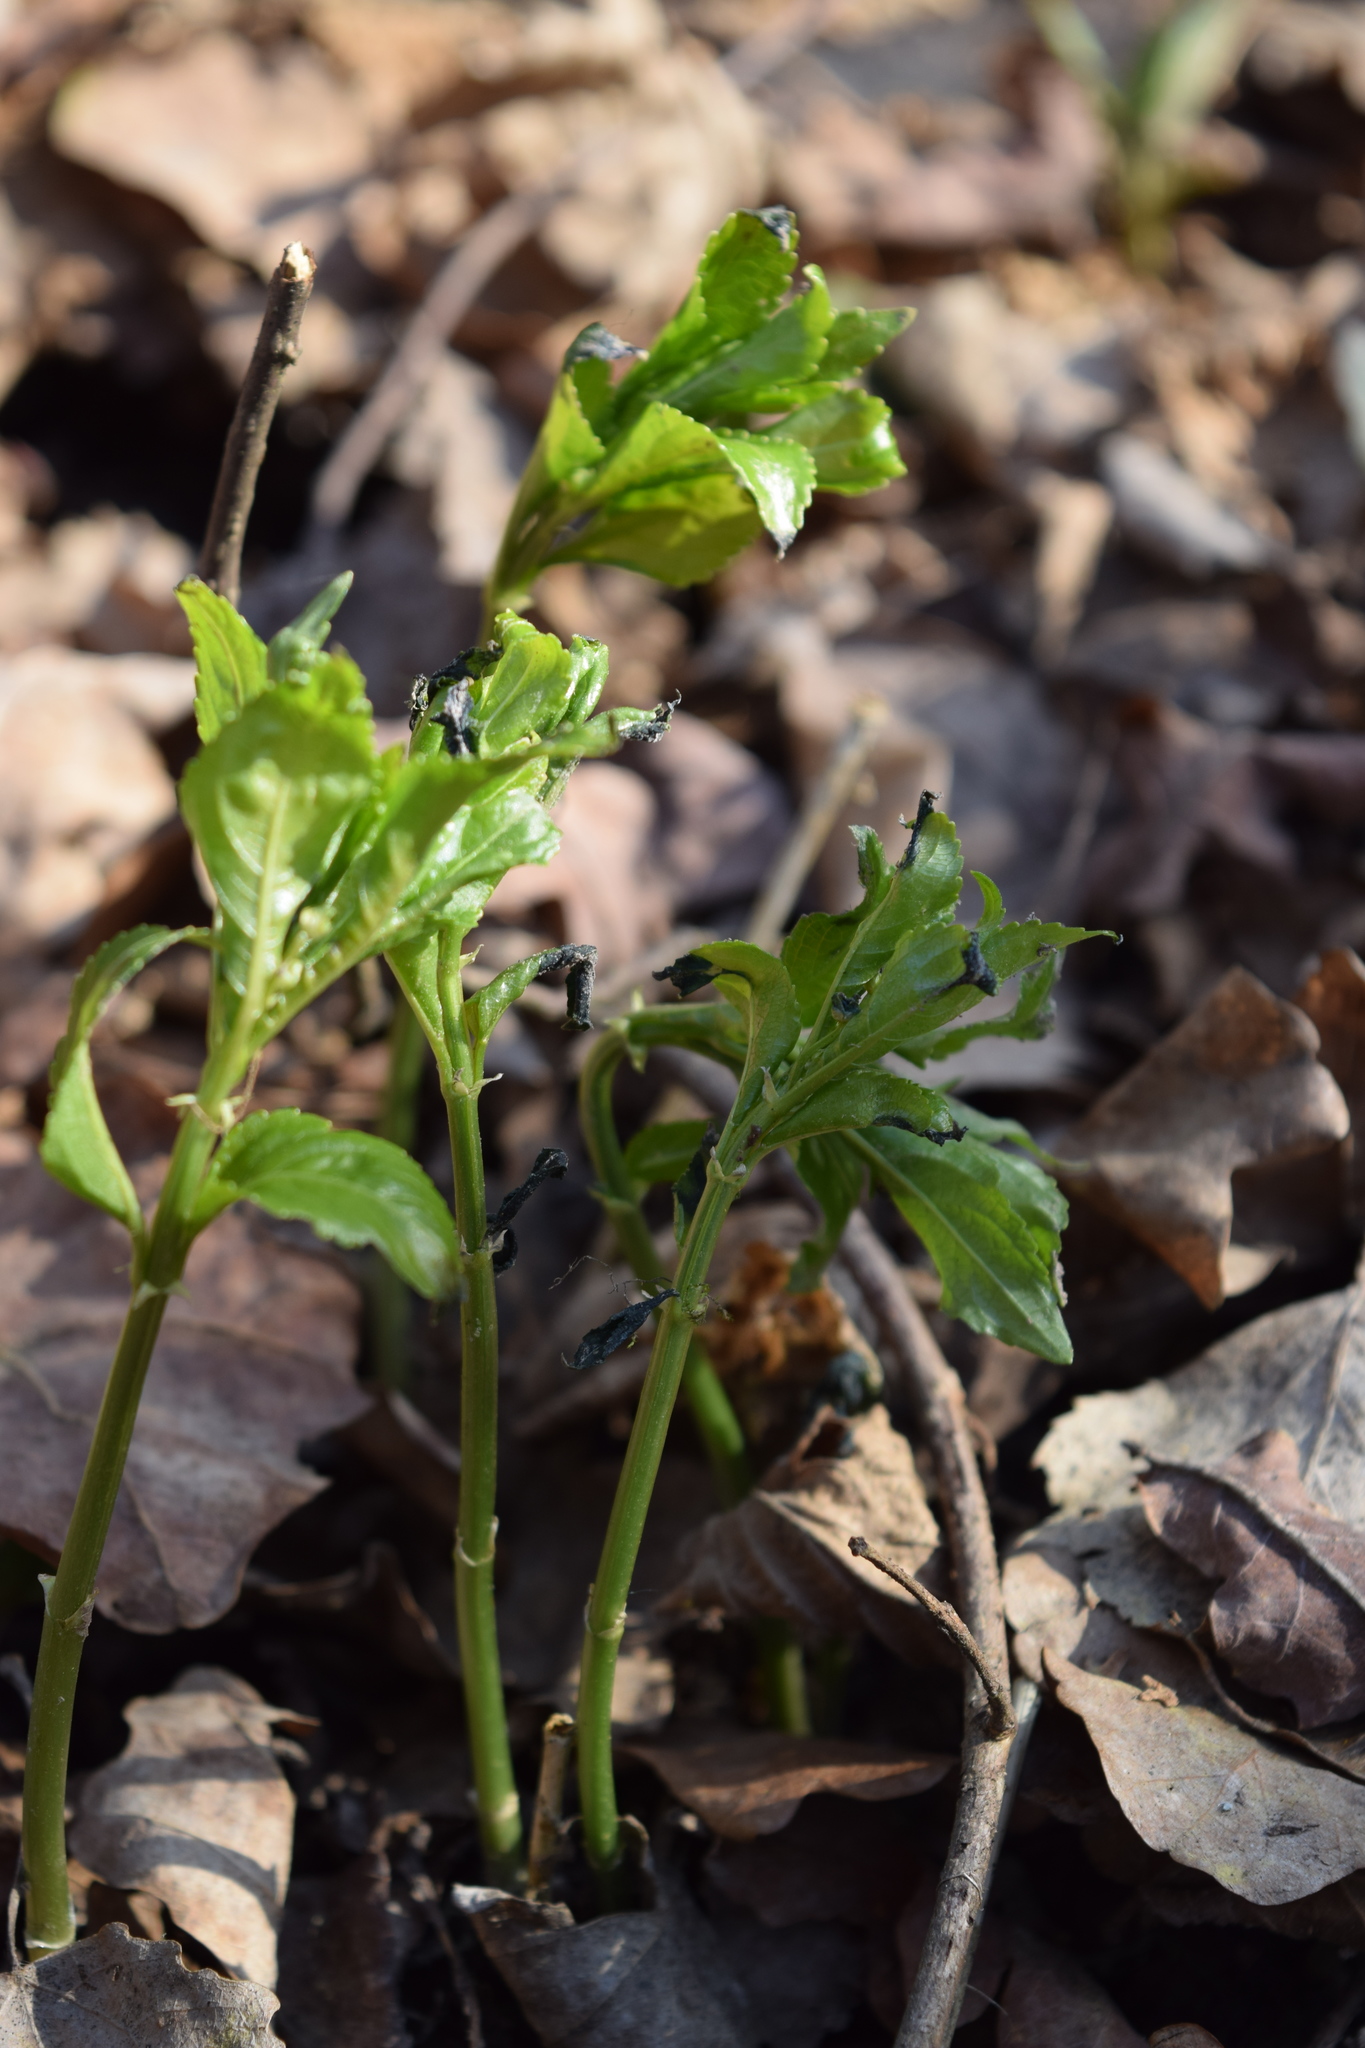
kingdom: Plantae
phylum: Tracheophyta
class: Magnoliopsida
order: Malpighiales
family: Euphorbiaceae
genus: Mercurialis
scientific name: Mercurialis perennis
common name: Dog mercury
